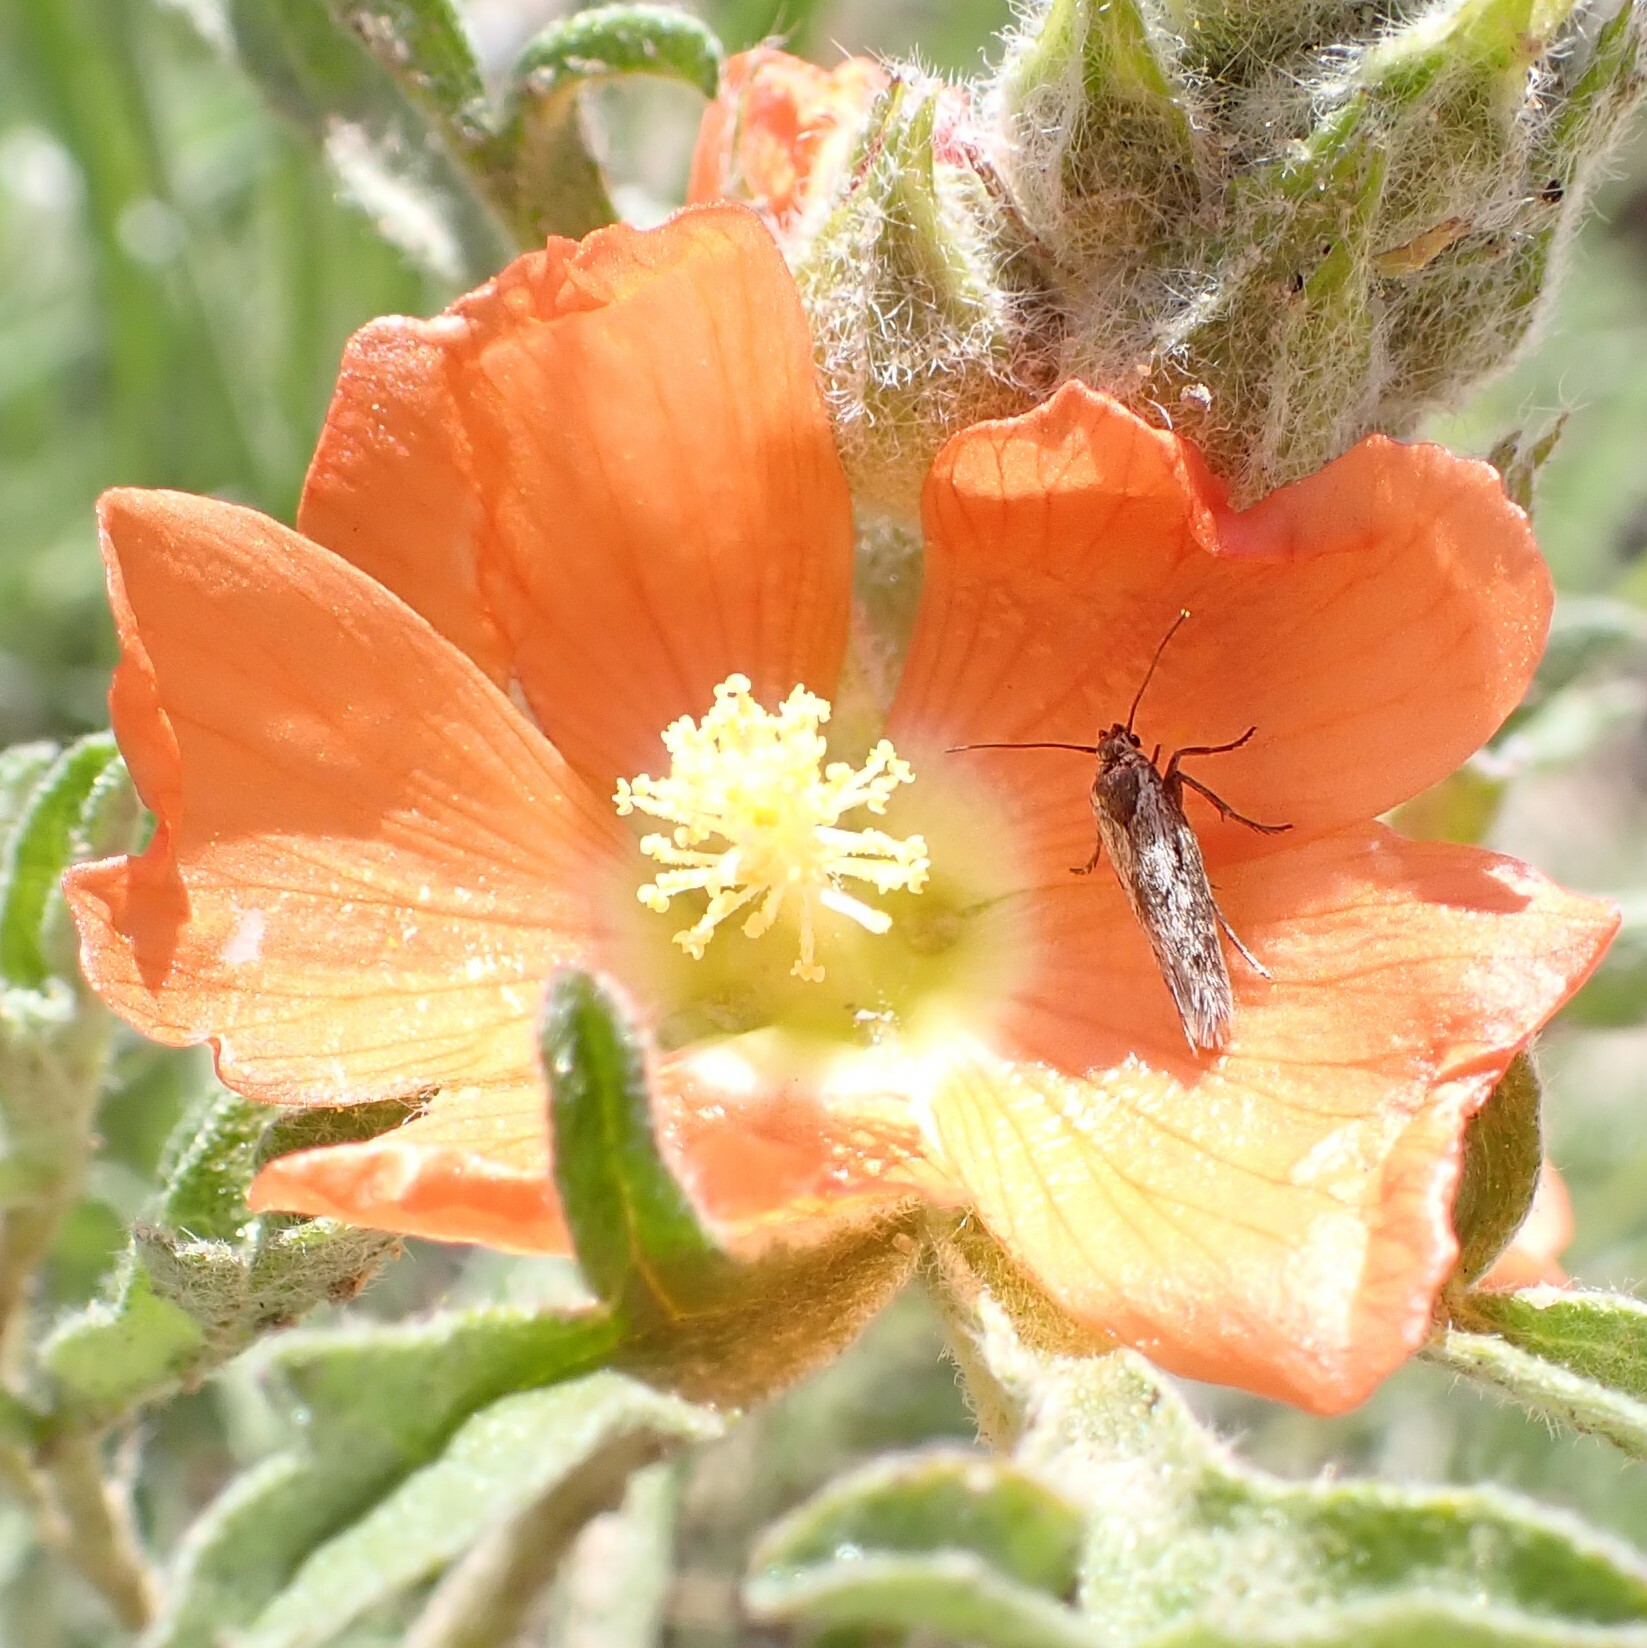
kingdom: Plantae
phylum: Tracheophyta
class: Magnoliopsida
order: Malvales
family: Malvaceae
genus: Sphaeralcea
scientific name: Sphaeralcea coccinea
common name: Moss-rose
